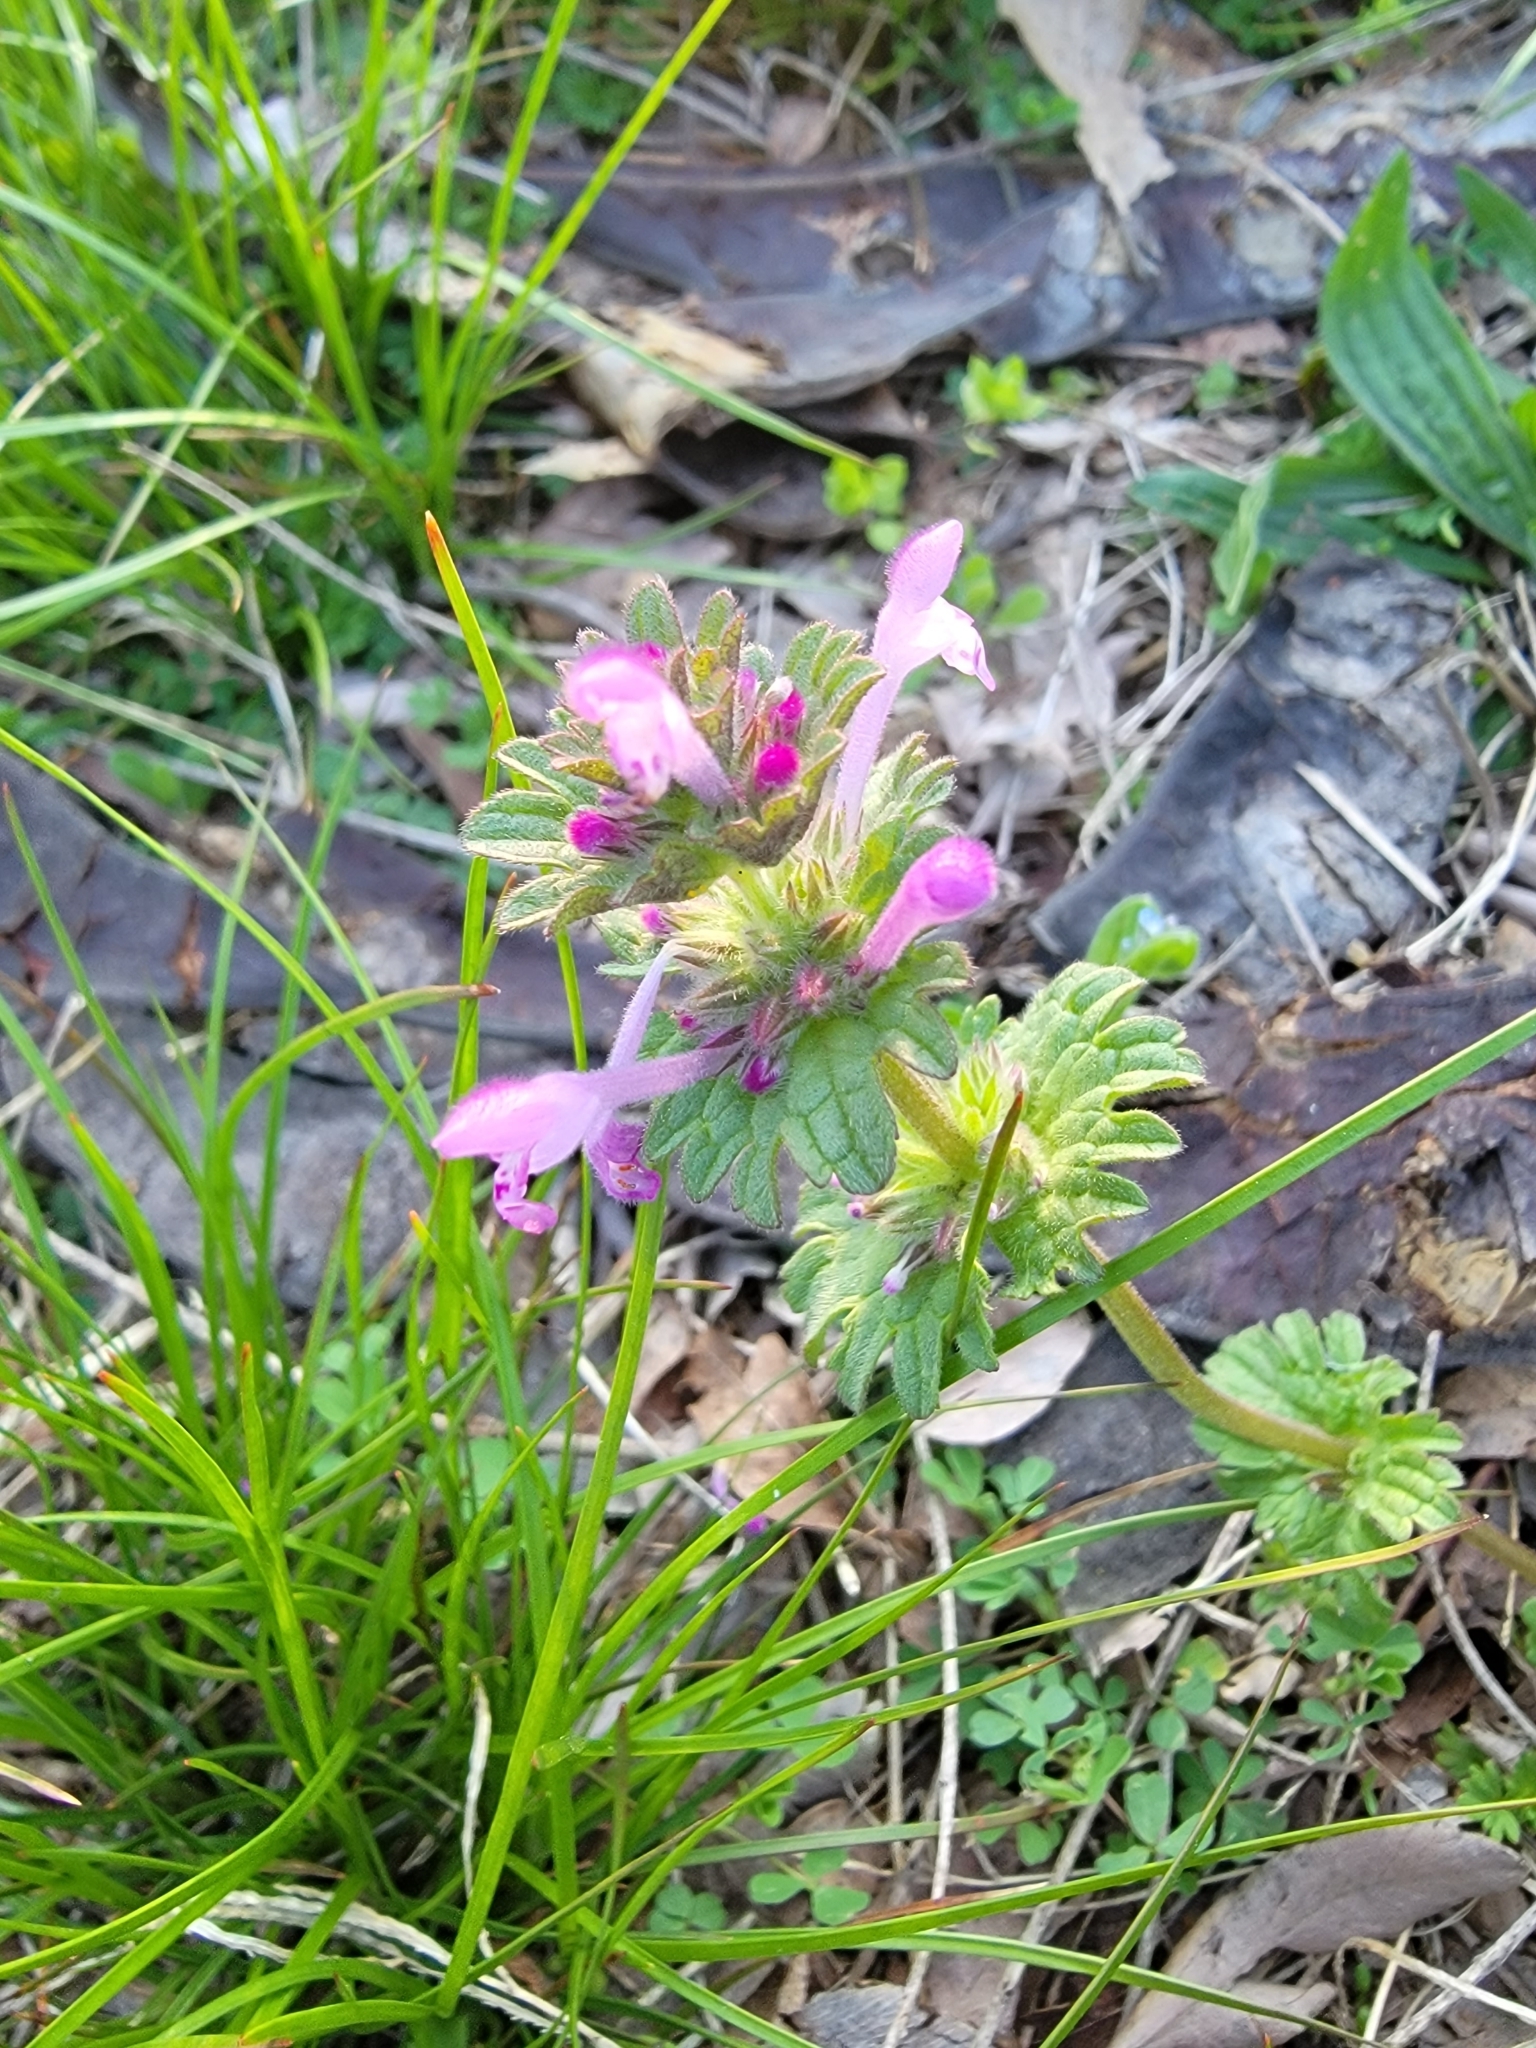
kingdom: Plantae
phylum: Tracheophyta
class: Magnoliopsida
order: Lamiales
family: Lamiaceae
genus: Lamium
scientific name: Lamium amplexicaule
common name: Henbit dead-nettle
